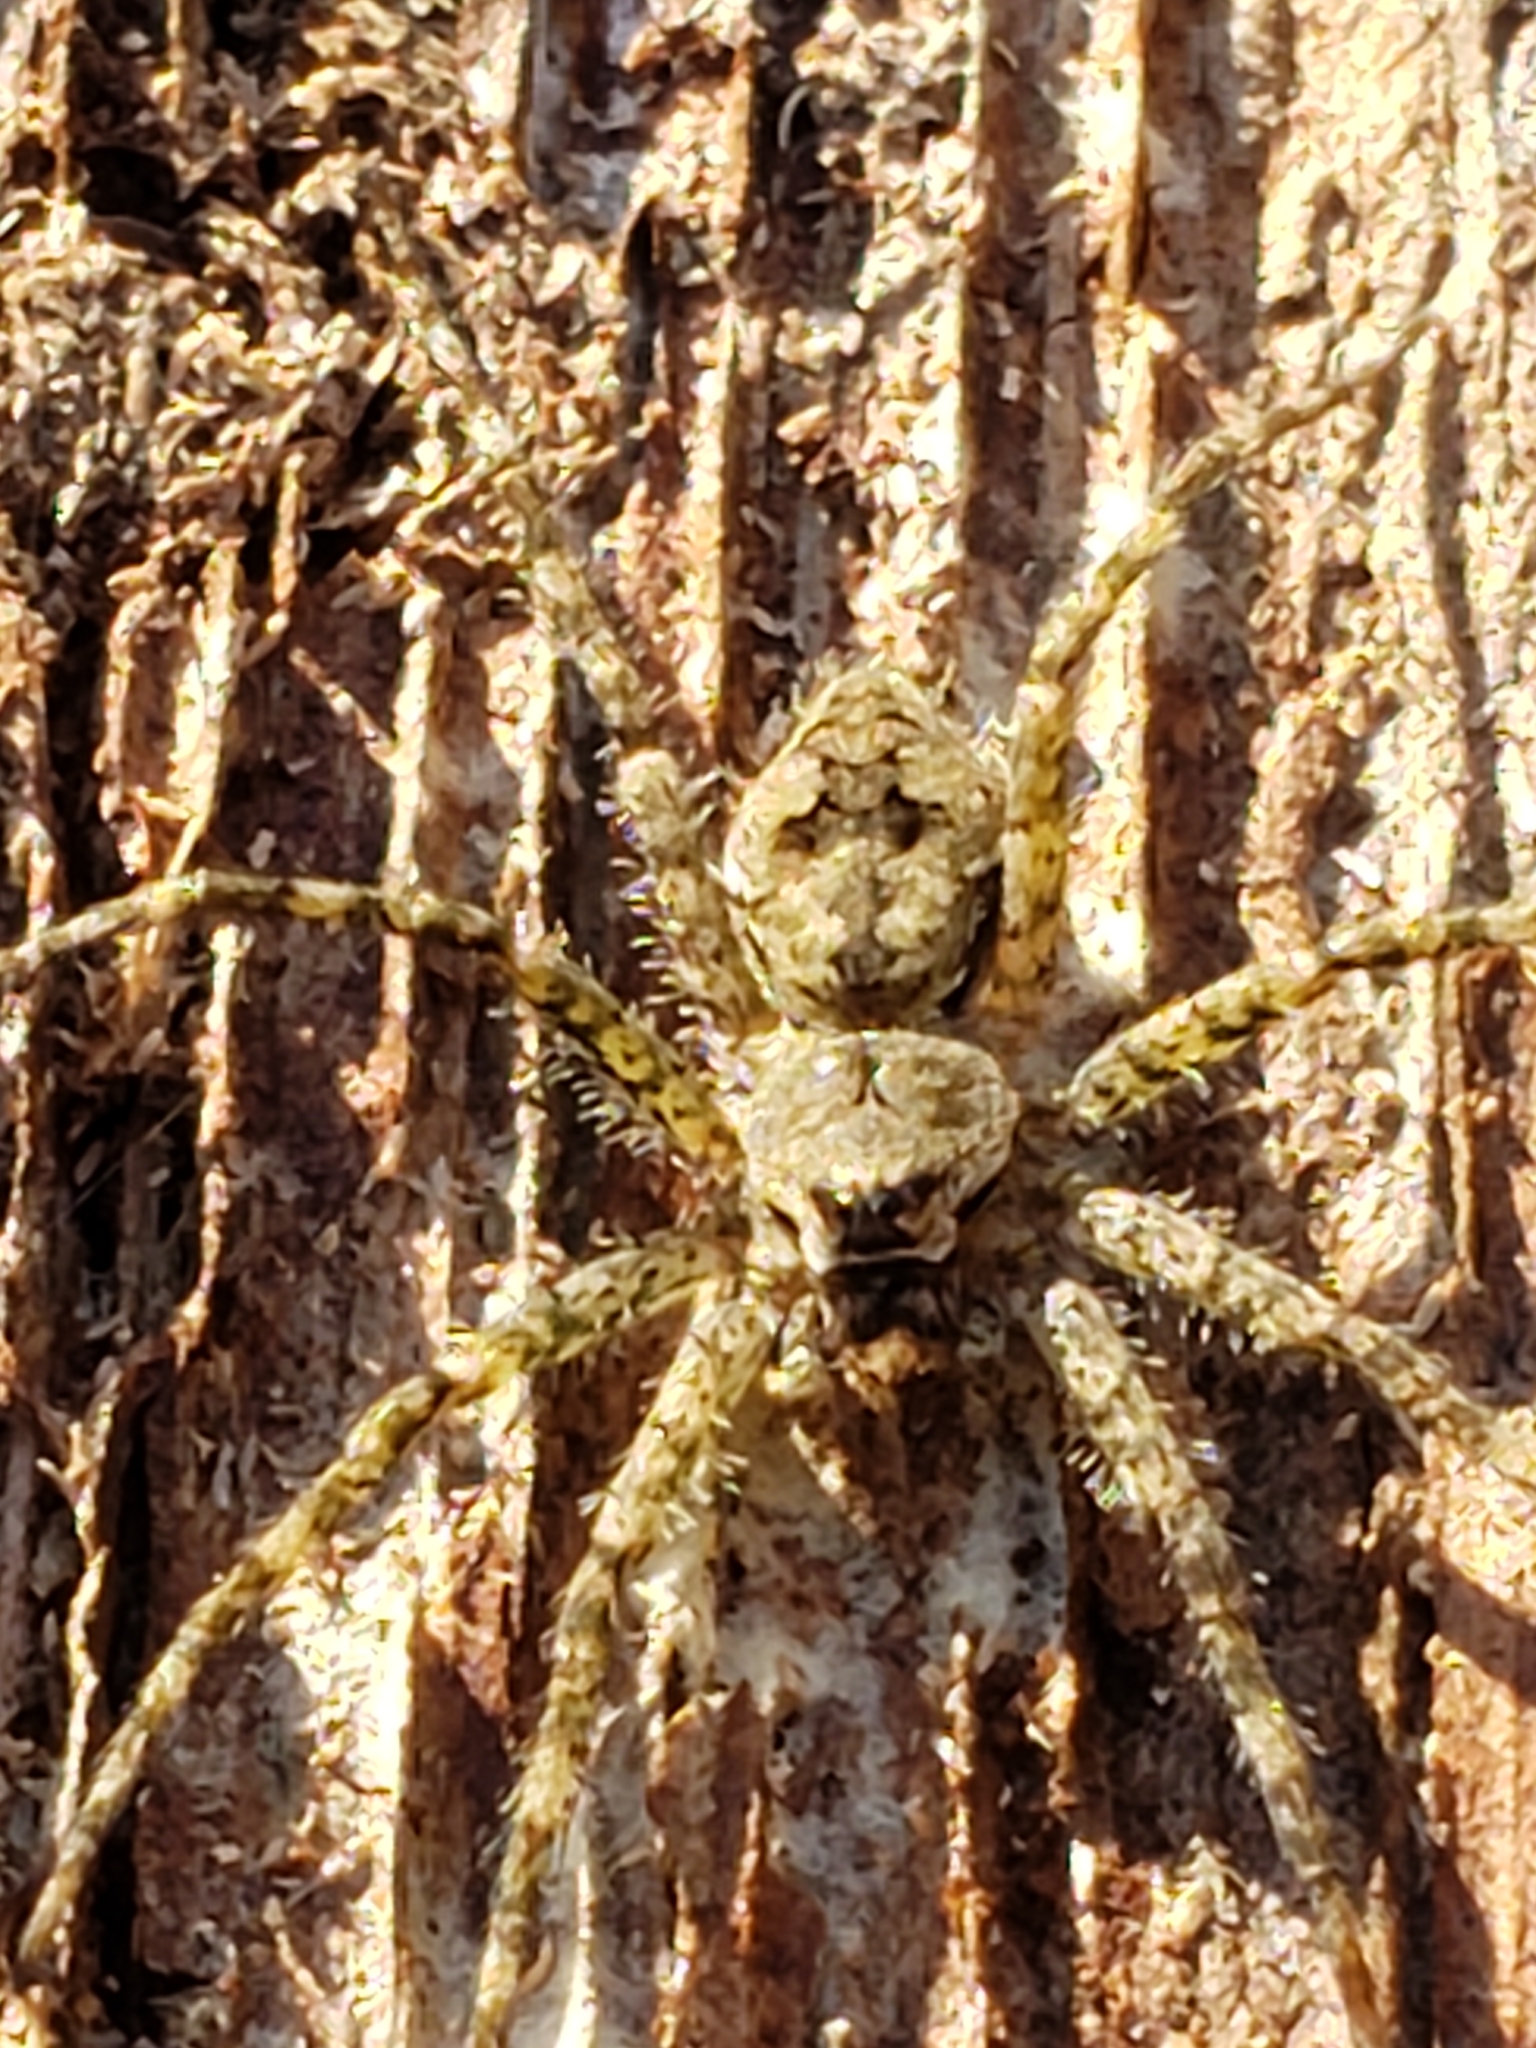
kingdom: Animalia
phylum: Arthropoda
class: Arachnida
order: Araneae
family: Pisauridae
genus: Dolomedes
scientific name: Dolomedes albineus
